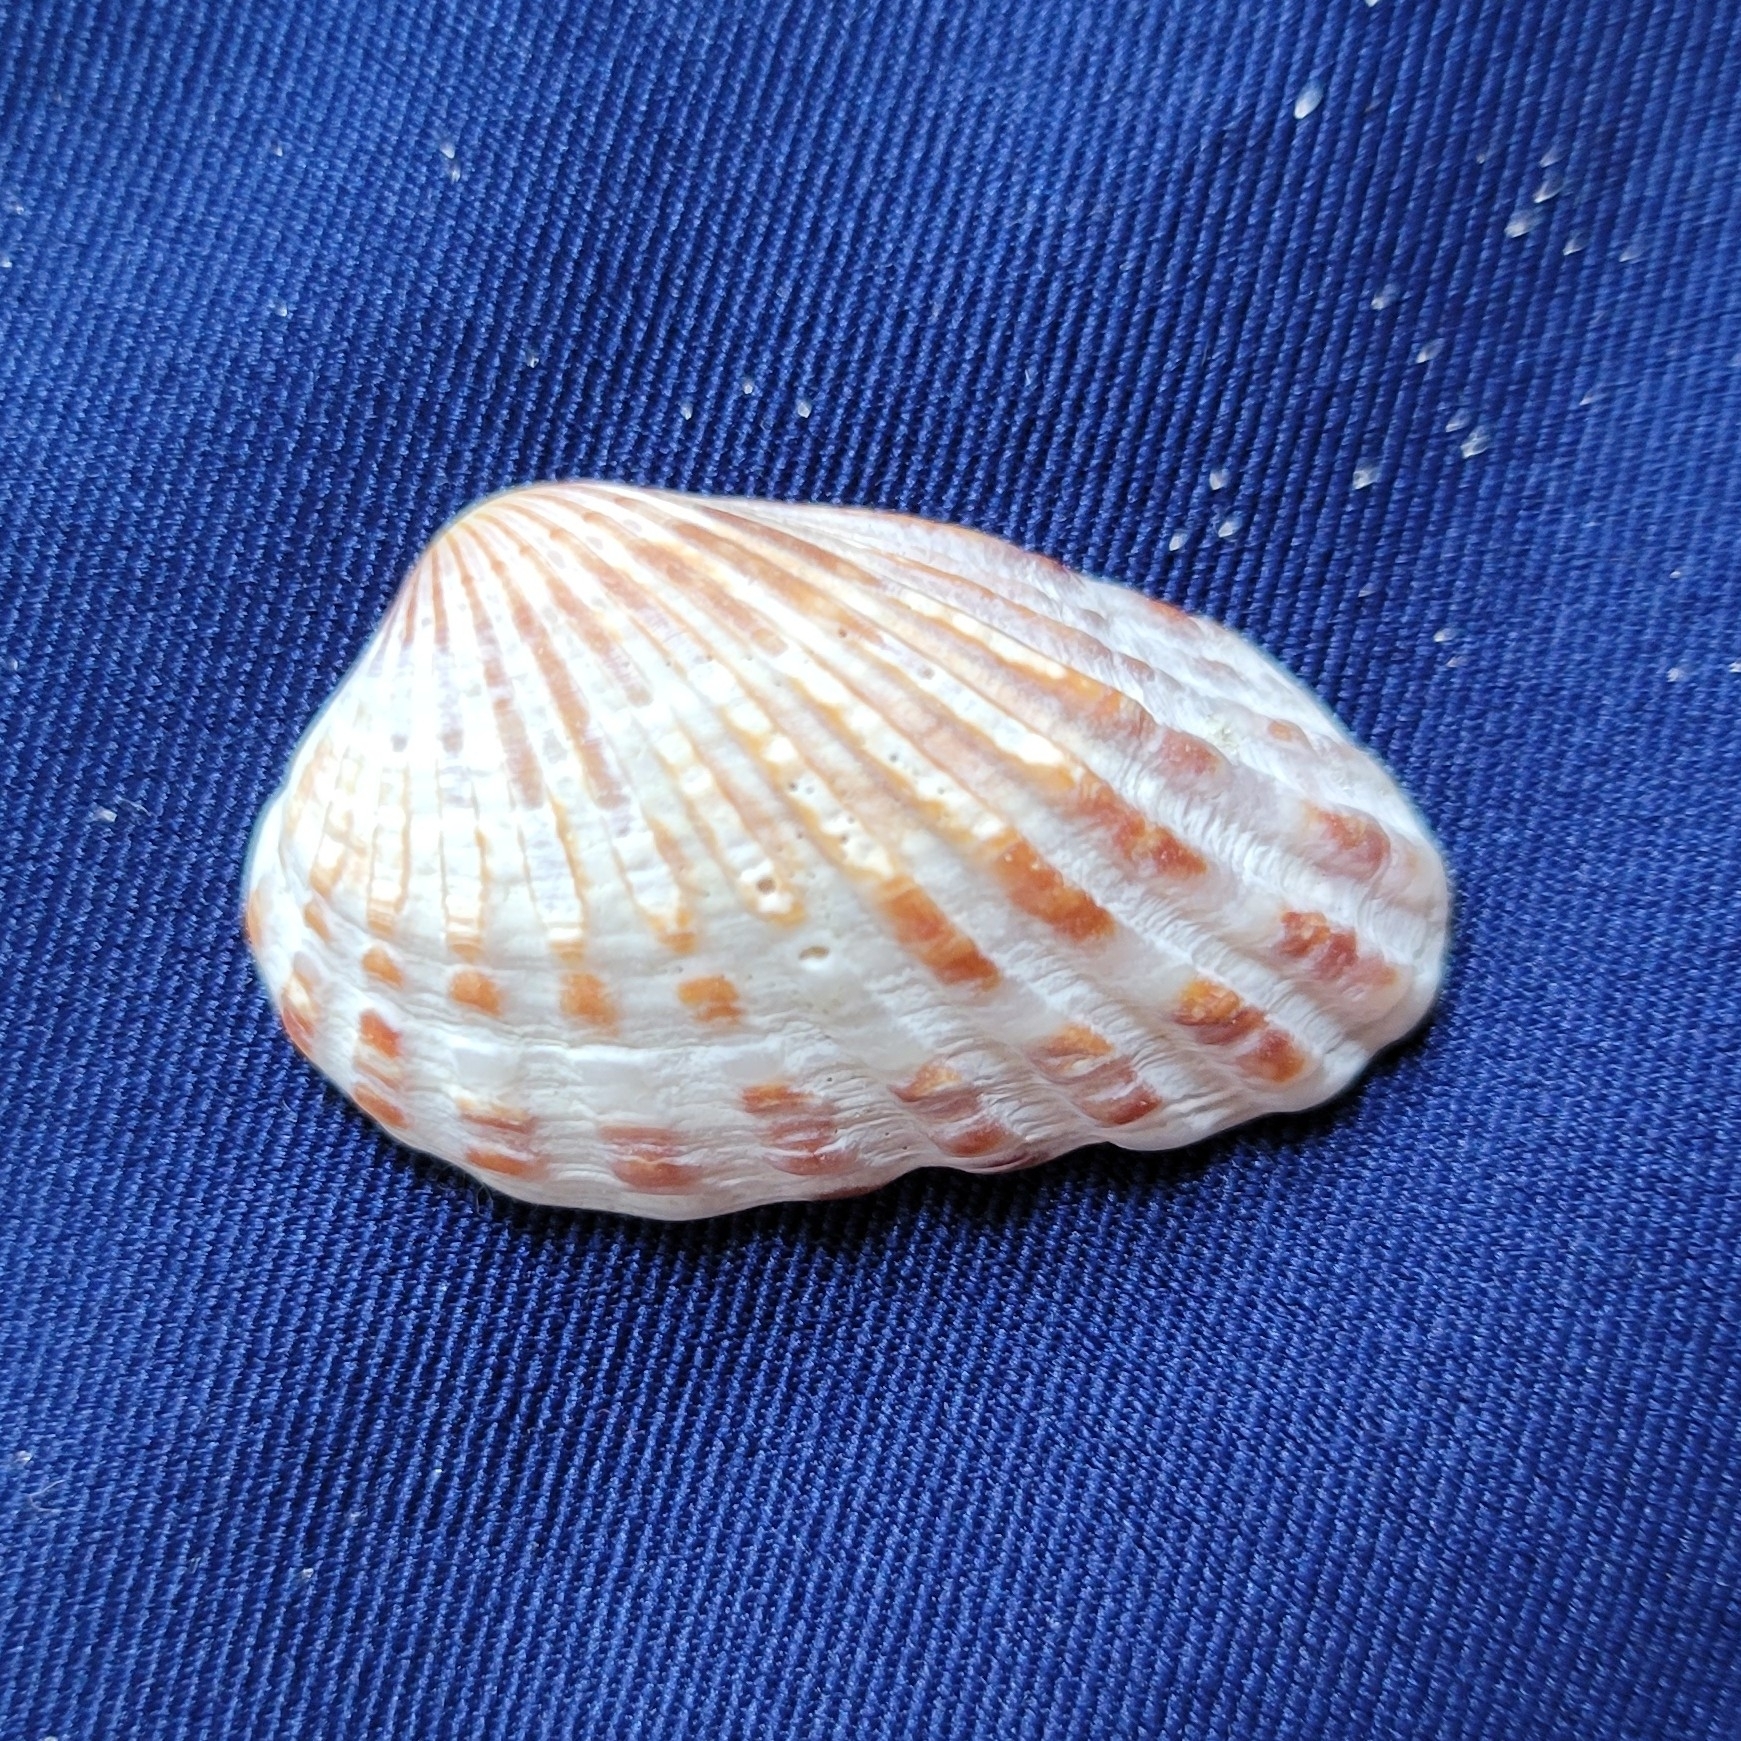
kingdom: Animalia
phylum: Mollusca
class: Bivalvia
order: Carditida
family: Carditidae
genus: Cardites
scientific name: Cardites floridanus
